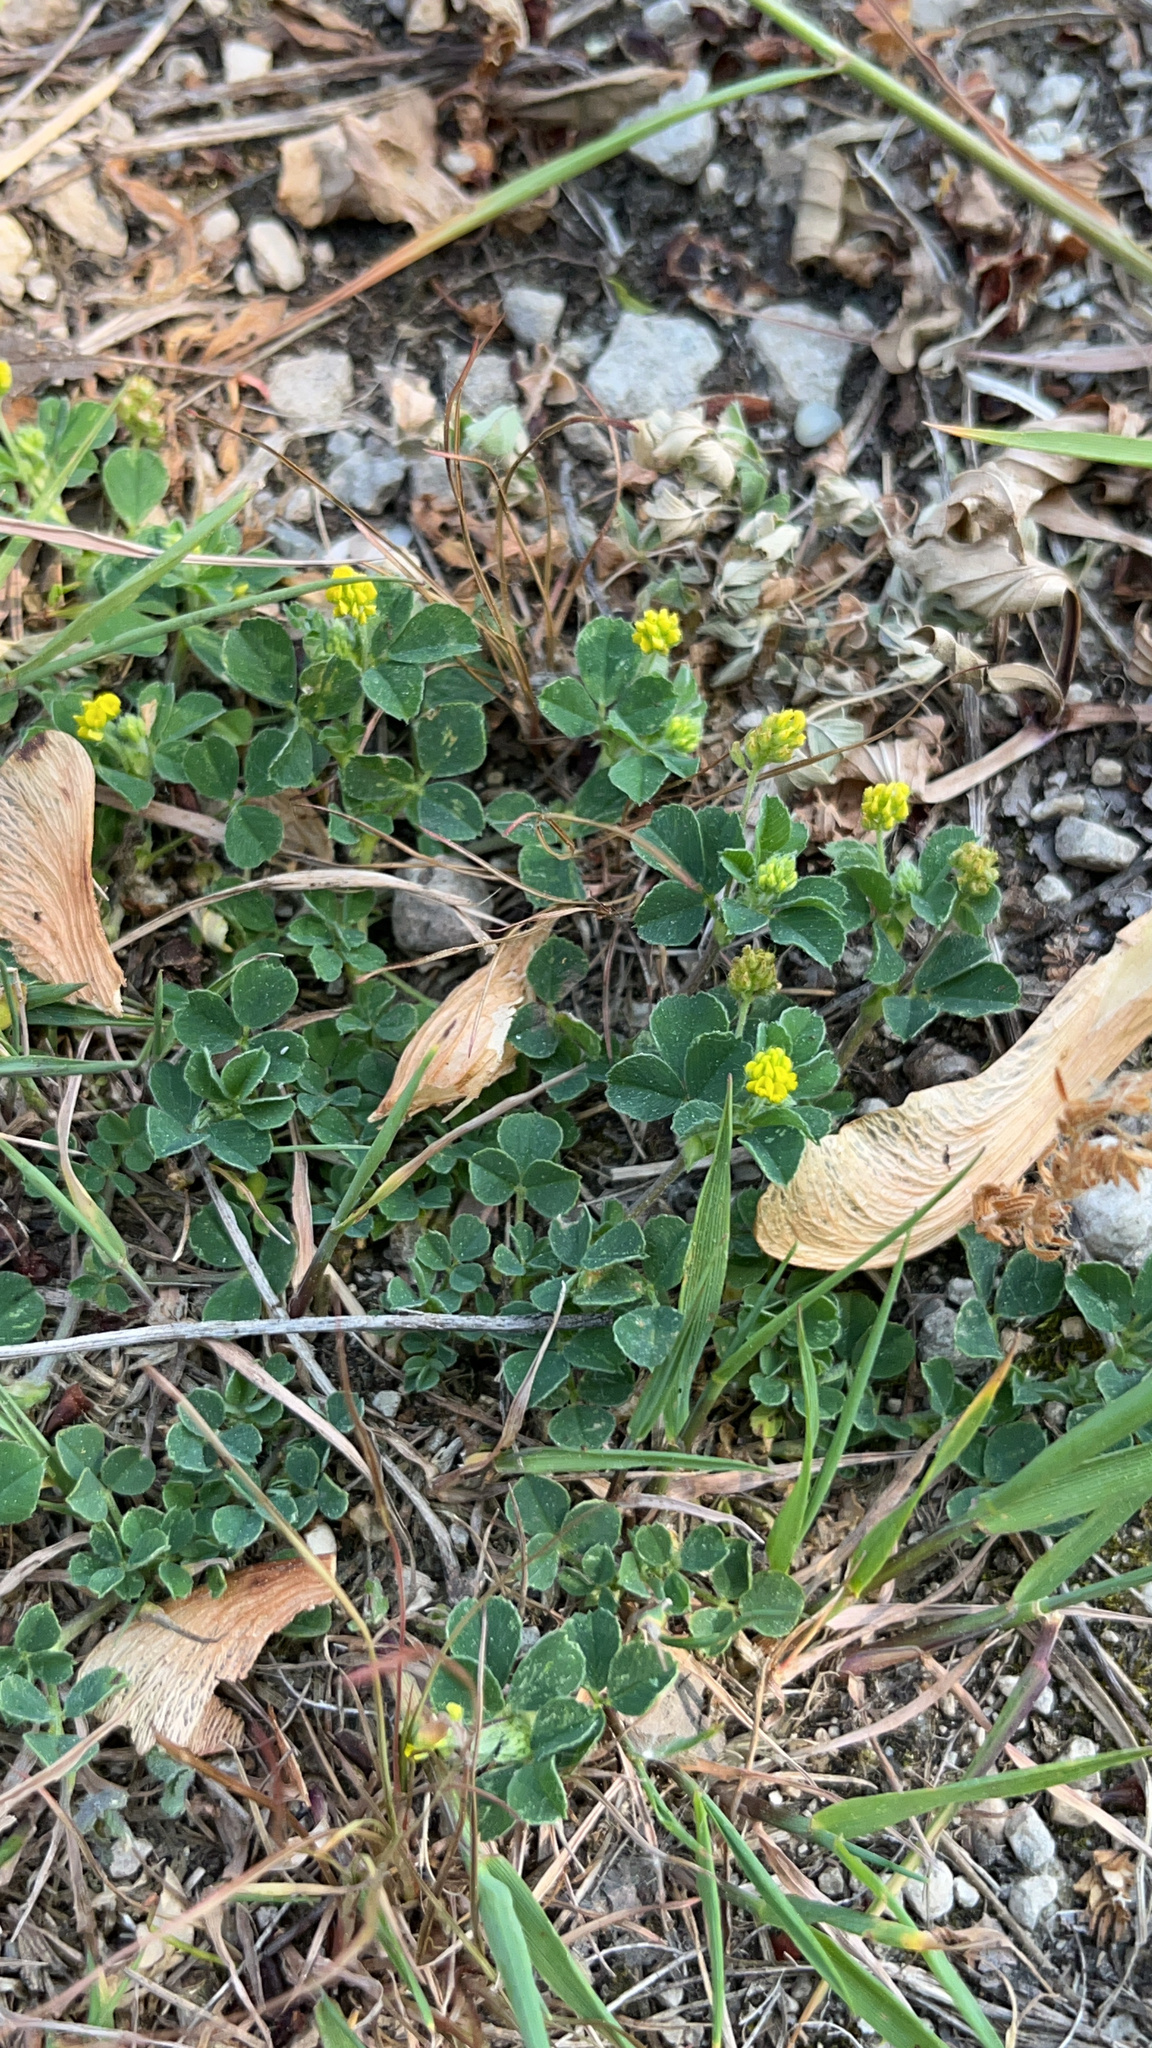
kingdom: Plantae
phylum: Tracheophyta
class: Magnoliopsida
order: Fabales
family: Fabaceae
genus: Medicago
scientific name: Medicago lupulina
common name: Black medick
